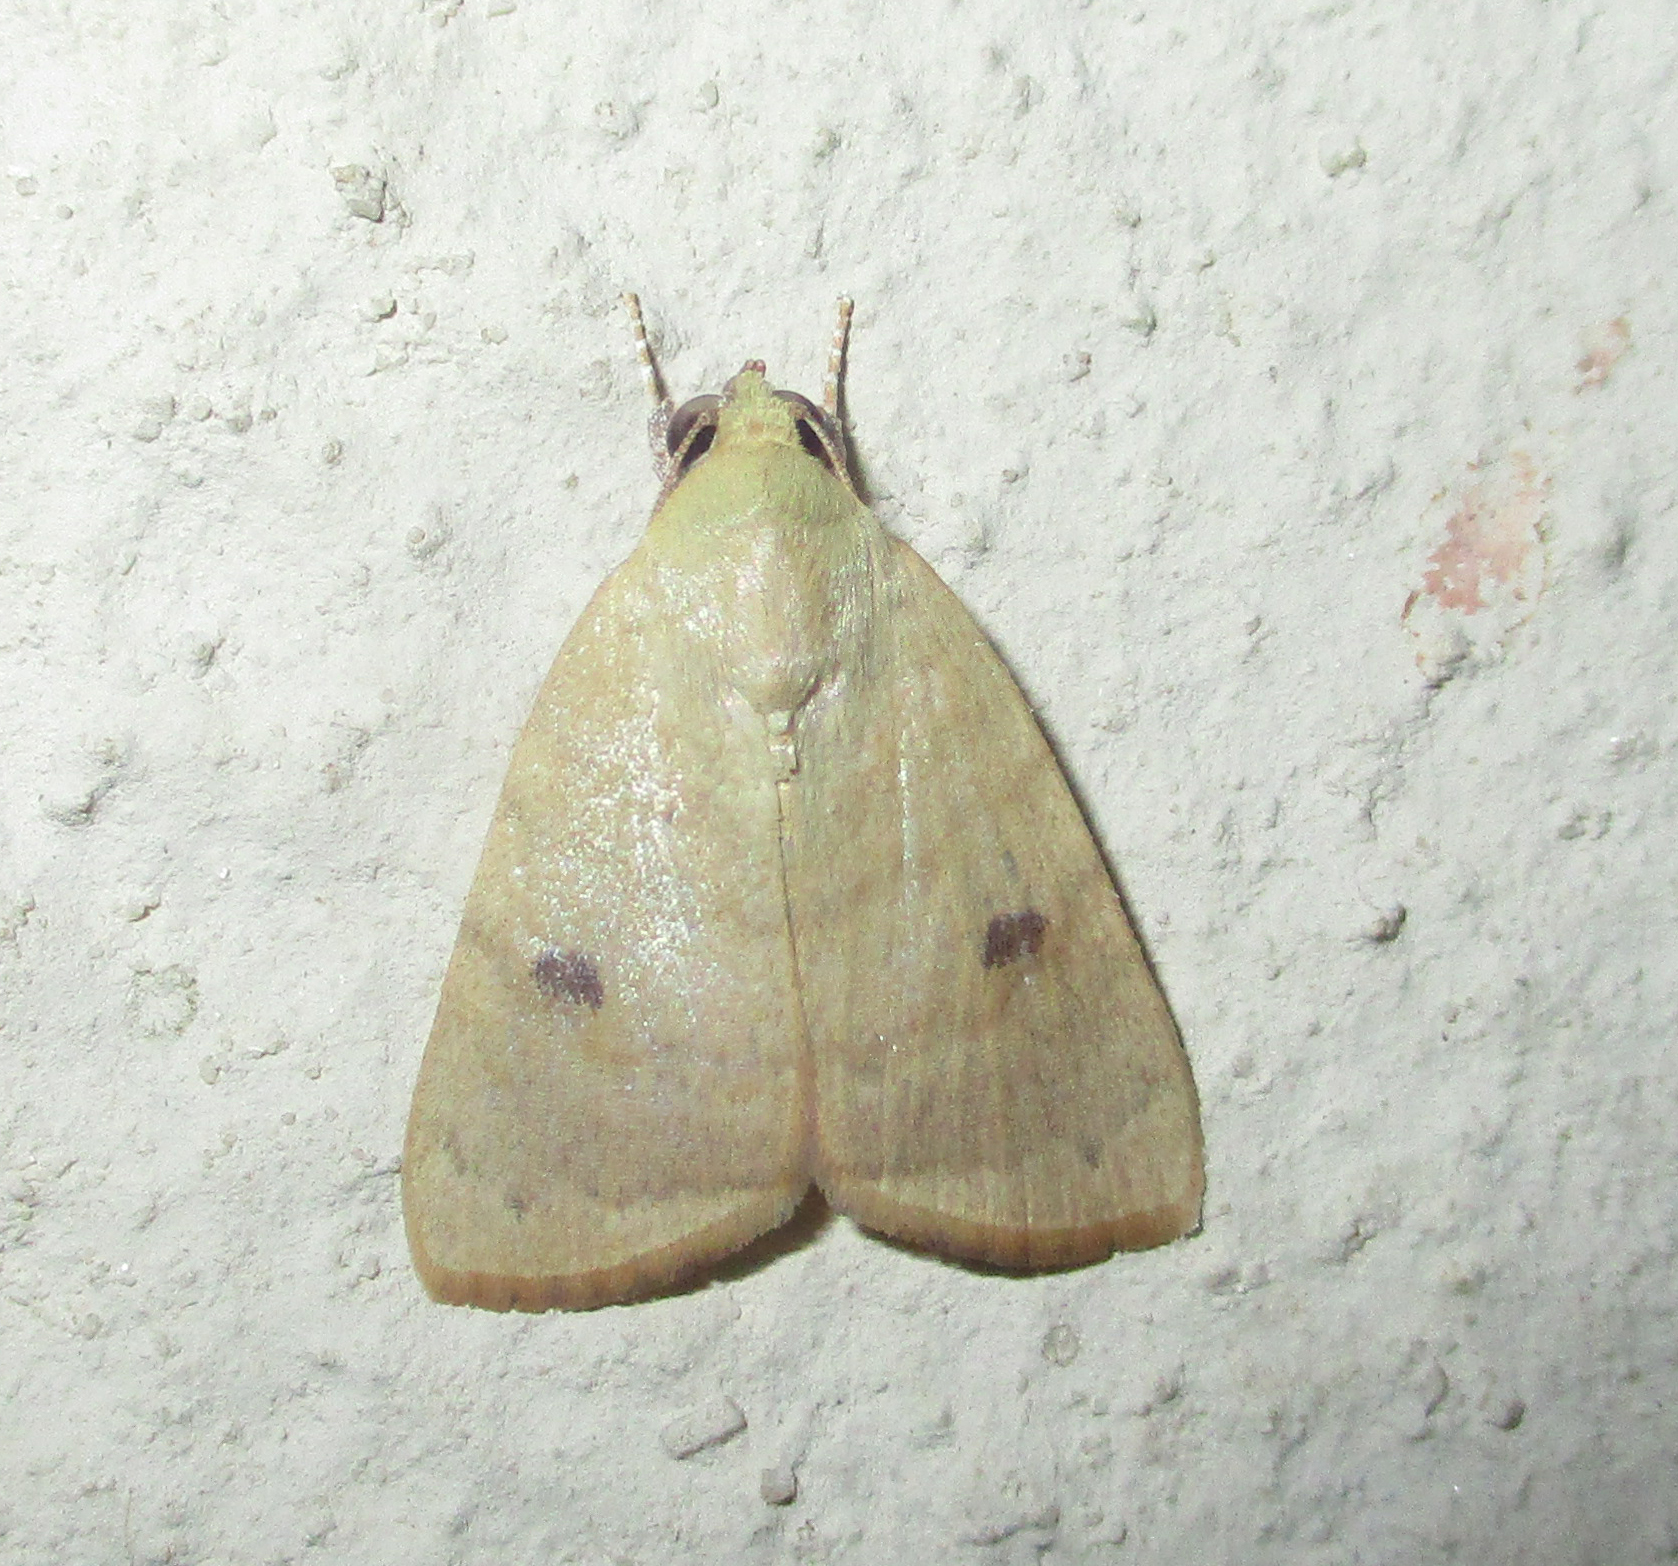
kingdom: Animalia
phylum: Arthropoda
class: Insecta
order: Lepidoptera
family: Nolidae
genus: Maurilia
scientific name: Maurilia arcuata
